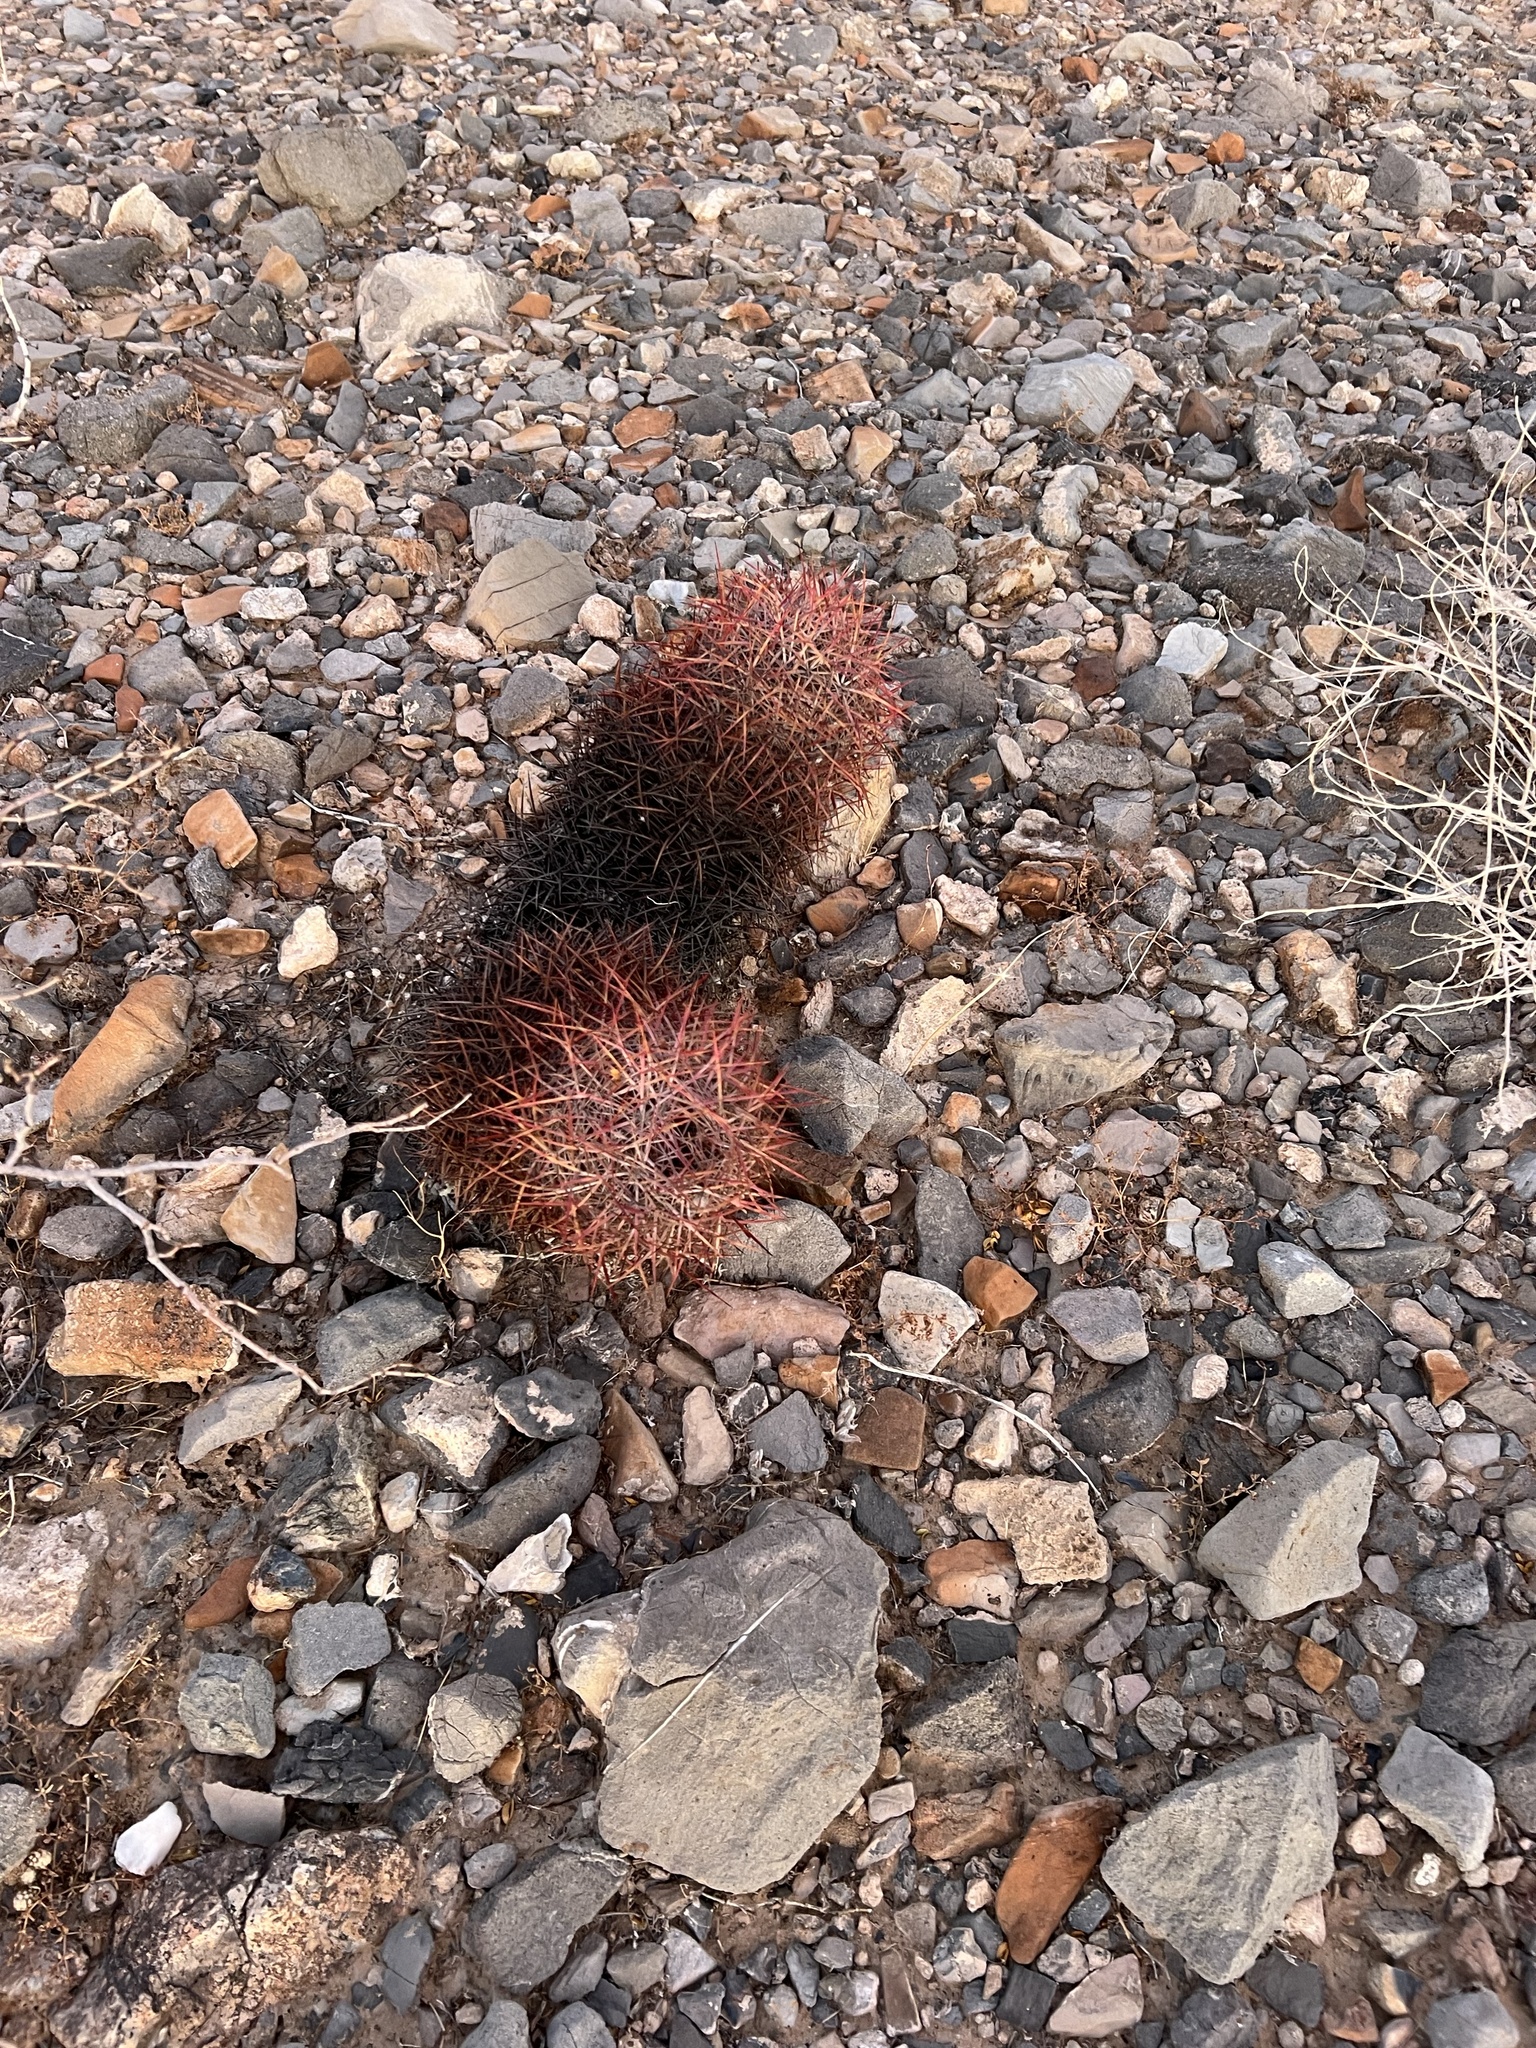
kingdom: Plantae
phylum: Tracheophyta
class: Magnoliopsida
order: Caryophyllales
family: Cactaceae
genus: Sclerocactus
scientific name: Sclerocactus johnsonii
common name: Eight-spine fishhook cactus
